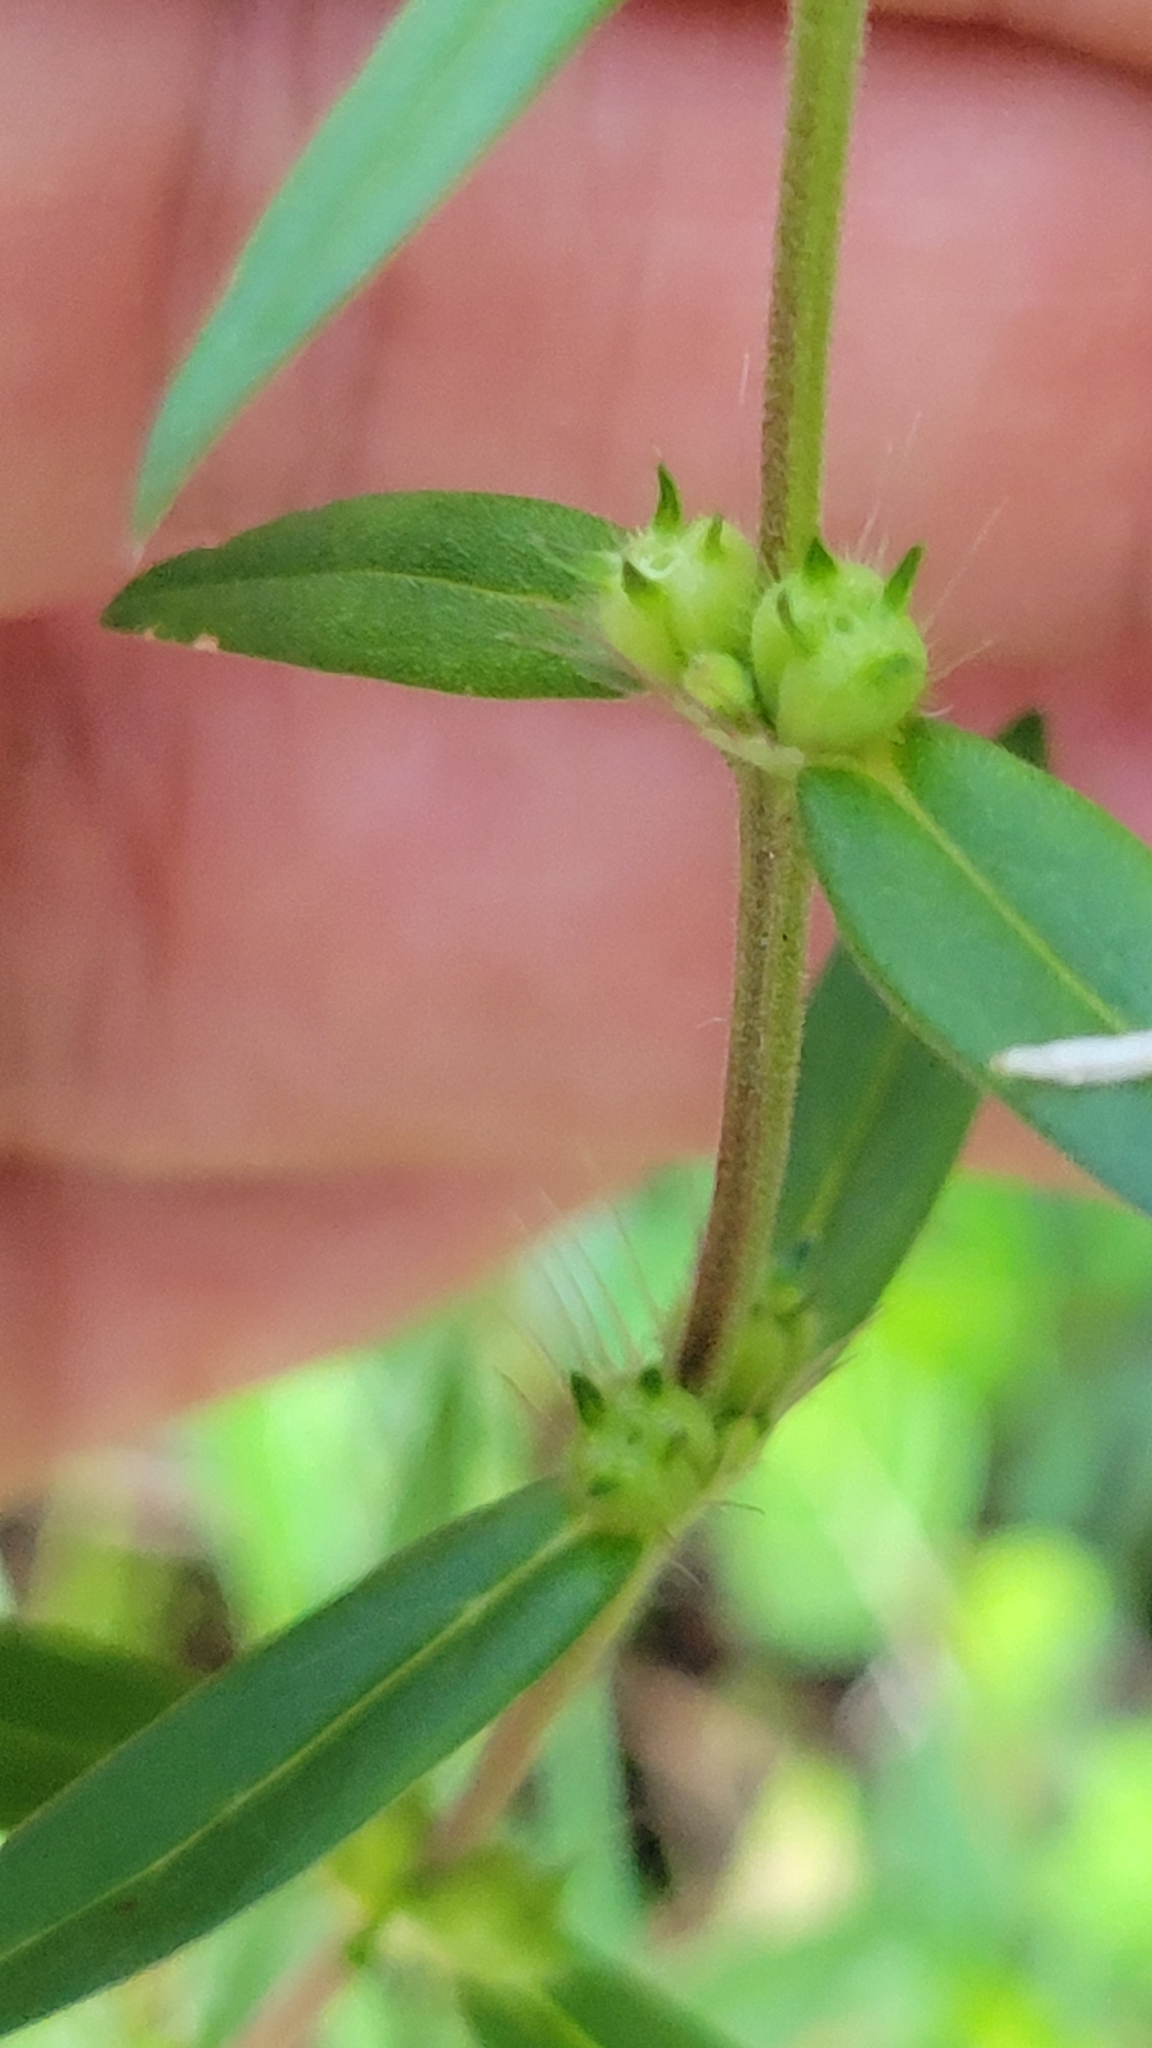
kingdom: Plantae
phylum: Tracheophyta
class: Magnoliopsida
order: Gentianales
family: Rubiaceae
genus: Hexasepalum
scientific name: Hexasepalum teres
